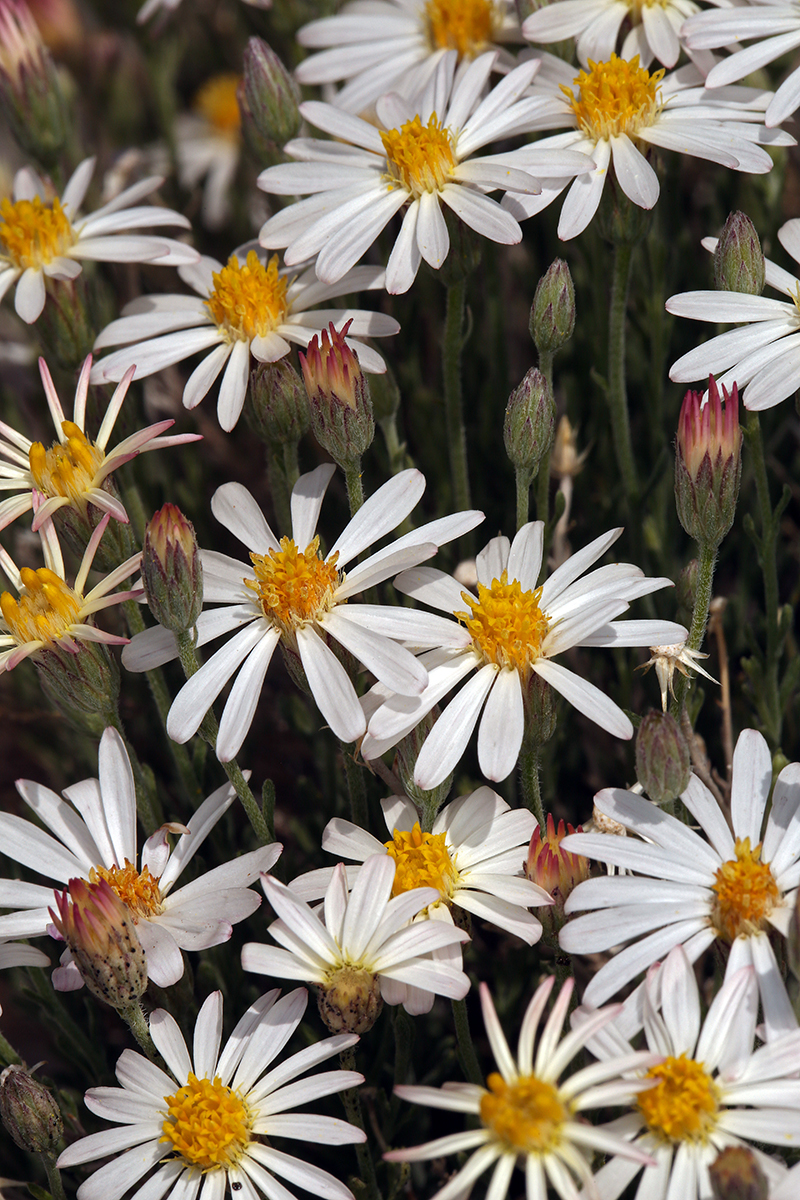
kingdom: Plantae
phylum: Tracheophyta
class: Magnoliopsida
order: Asterales
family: Asteraceae
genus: Chaetopappa
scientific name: Chaetopappa ericoides
